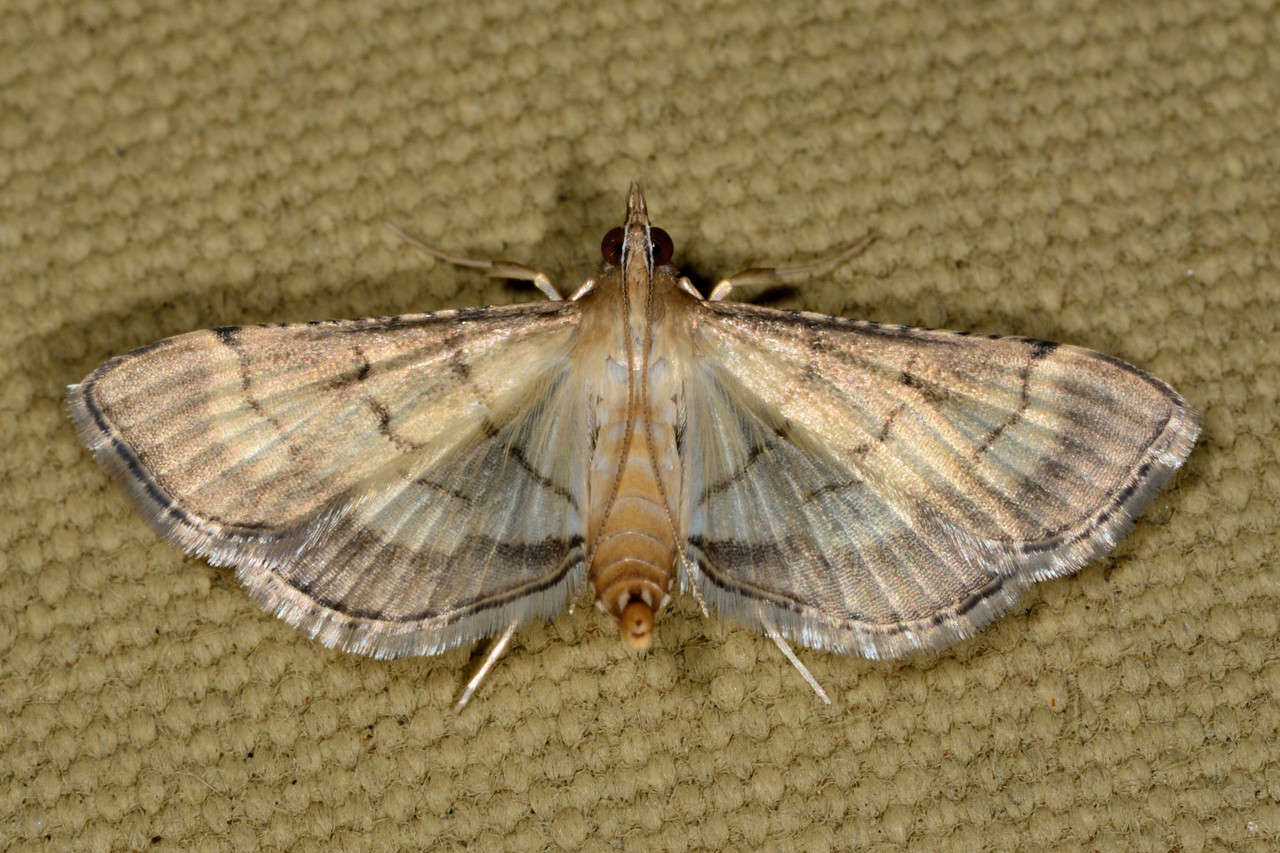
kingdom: Animalia
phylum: Arthropoda
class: Insecta
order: Lepidoptera
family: Crambidae
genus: Cnaphalocrocis
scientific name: Cnaphalocrocis poeyalis
